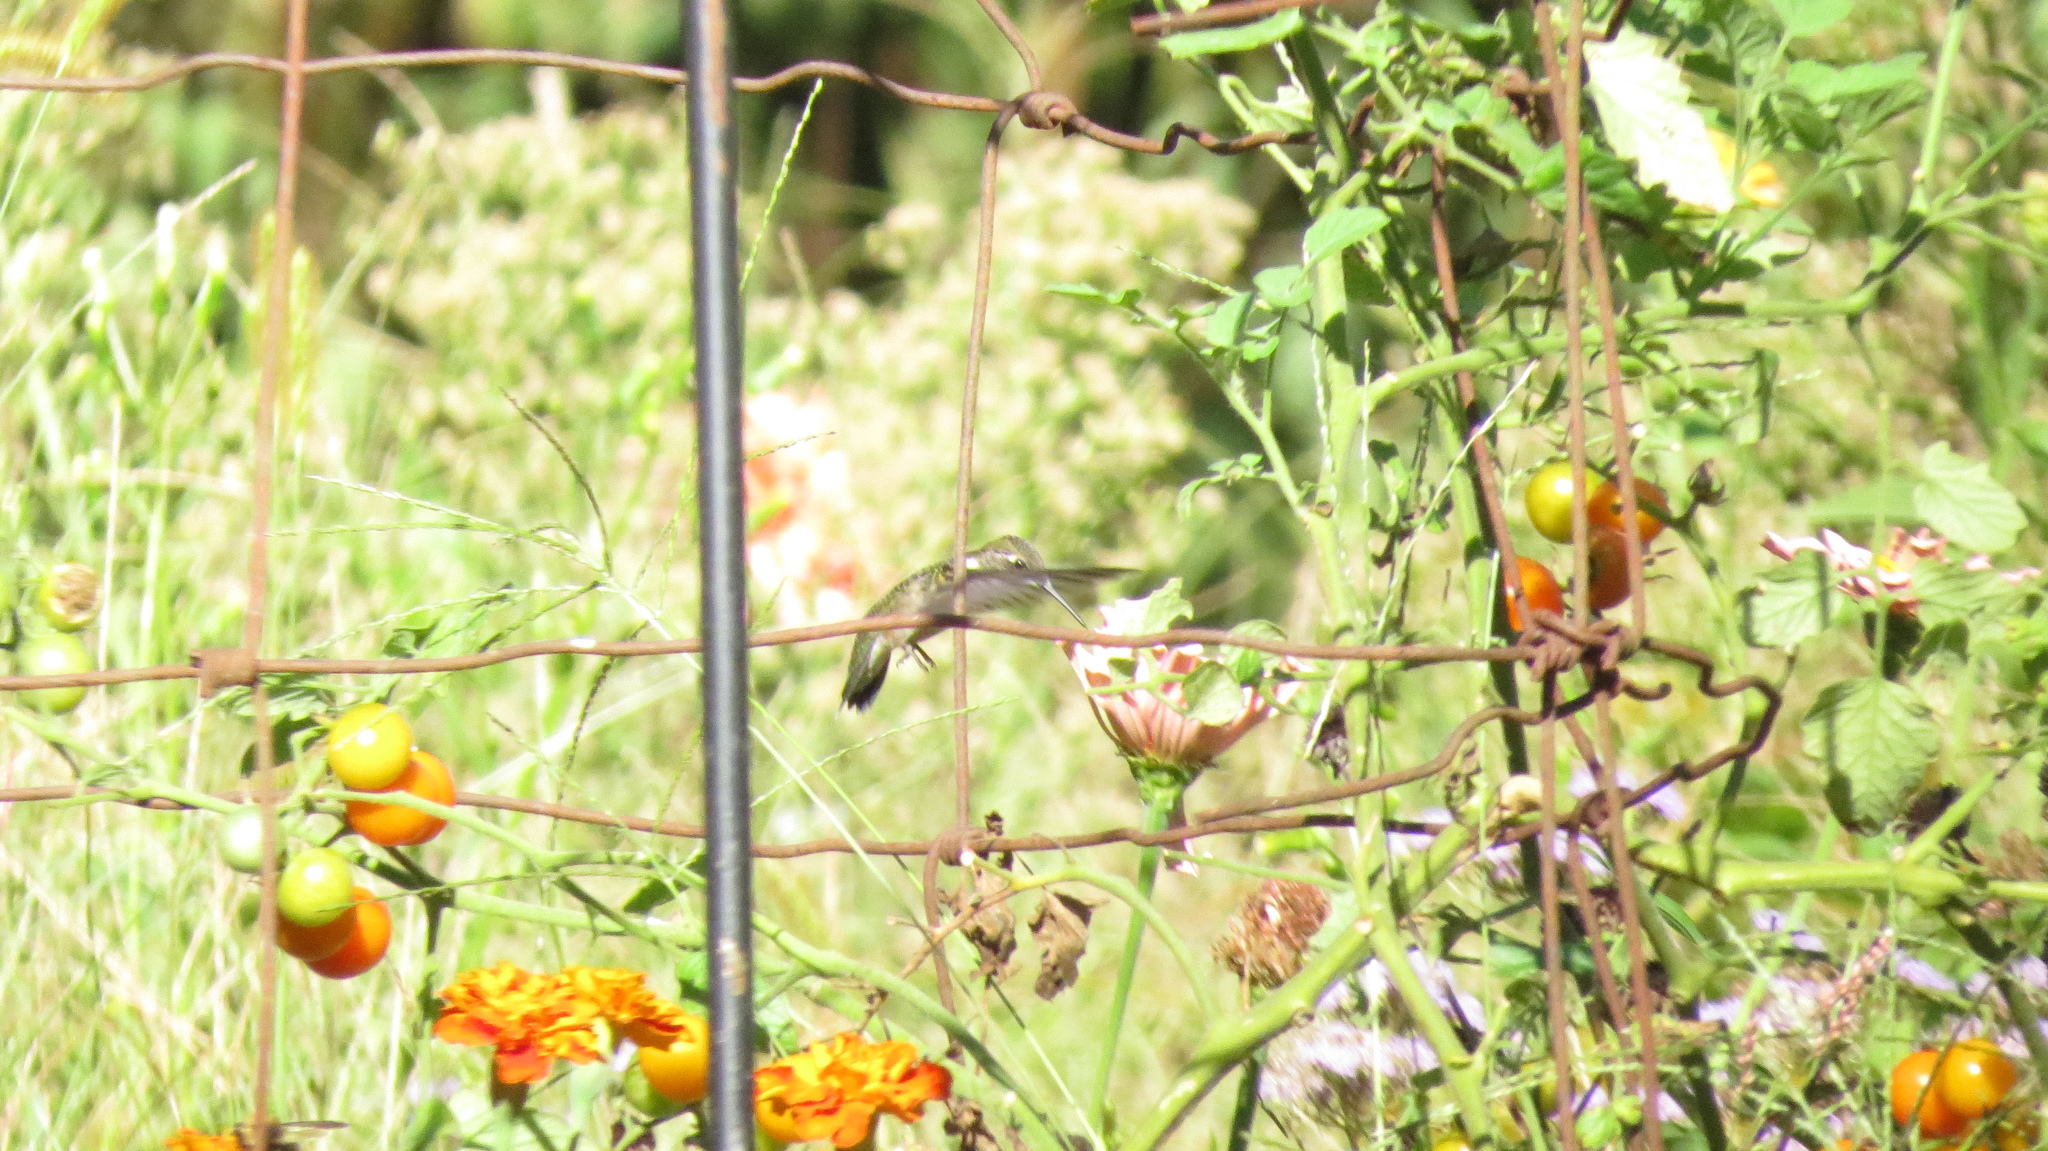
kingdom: Animalia
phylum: Chordata
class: Aves
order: Apodiformes
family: Trochilidae
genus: Archilochus
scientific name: Archilochus colubris
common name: Ruby-throated hummingbird
